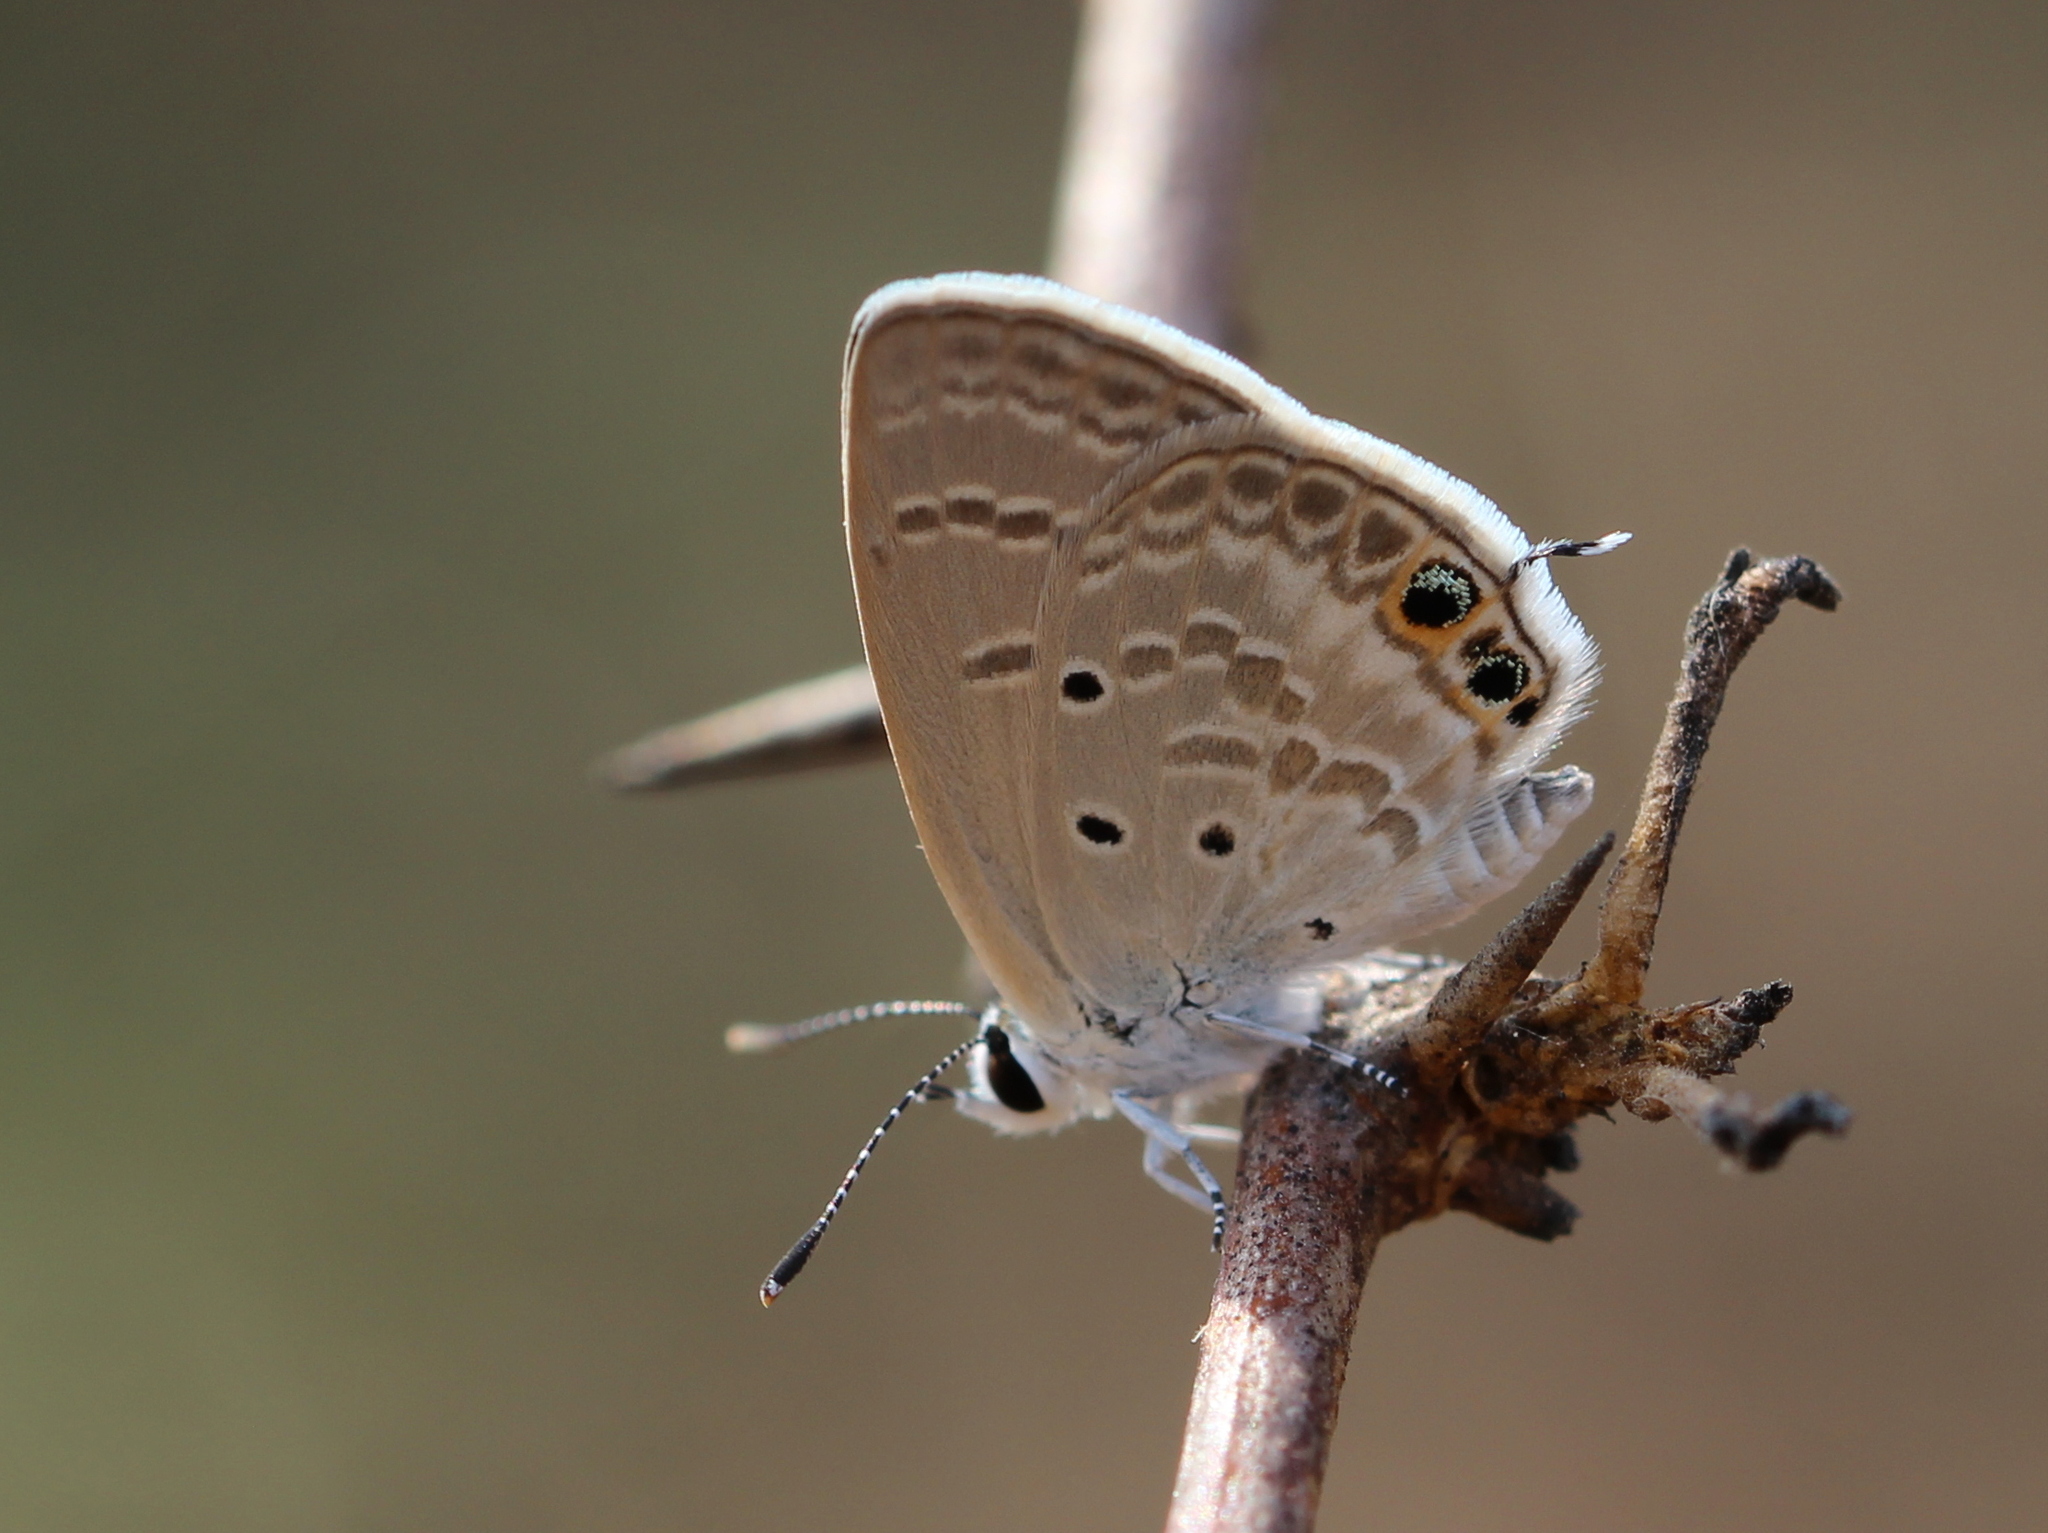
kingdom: Animalia
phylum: Arthropoda
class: Insecta
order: Lepidoptera
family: Lycaenidae
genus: Chilades
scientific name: Chilades parrhasius
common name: Small cupid
